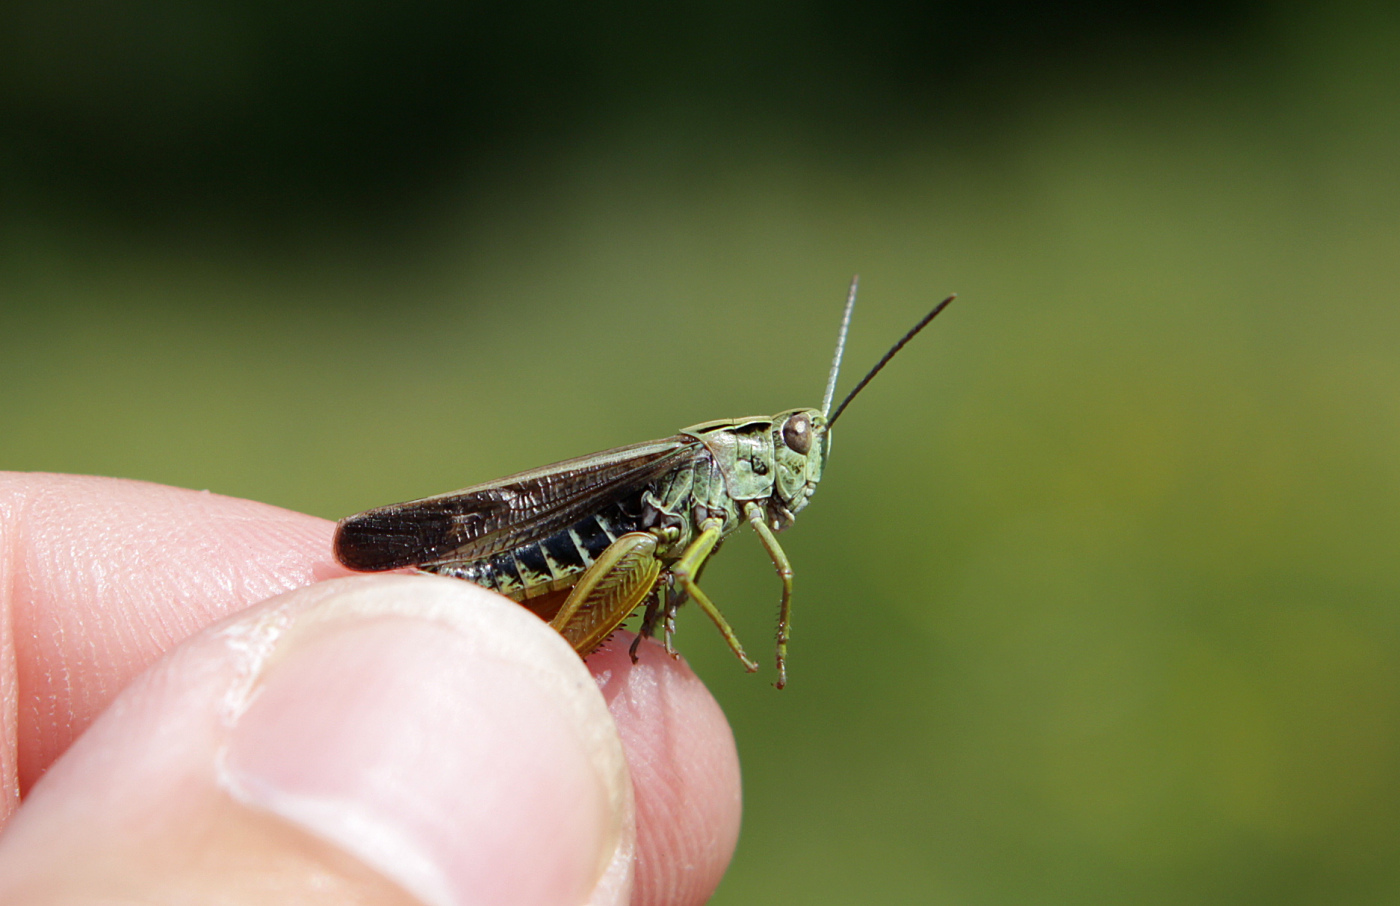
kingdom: Animalia
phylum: Arthropoda
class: Insecta
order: Orthoptera
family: Acrididae
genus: Omocestus
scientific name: Omocestus viridulus
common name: Common green grasshopper
